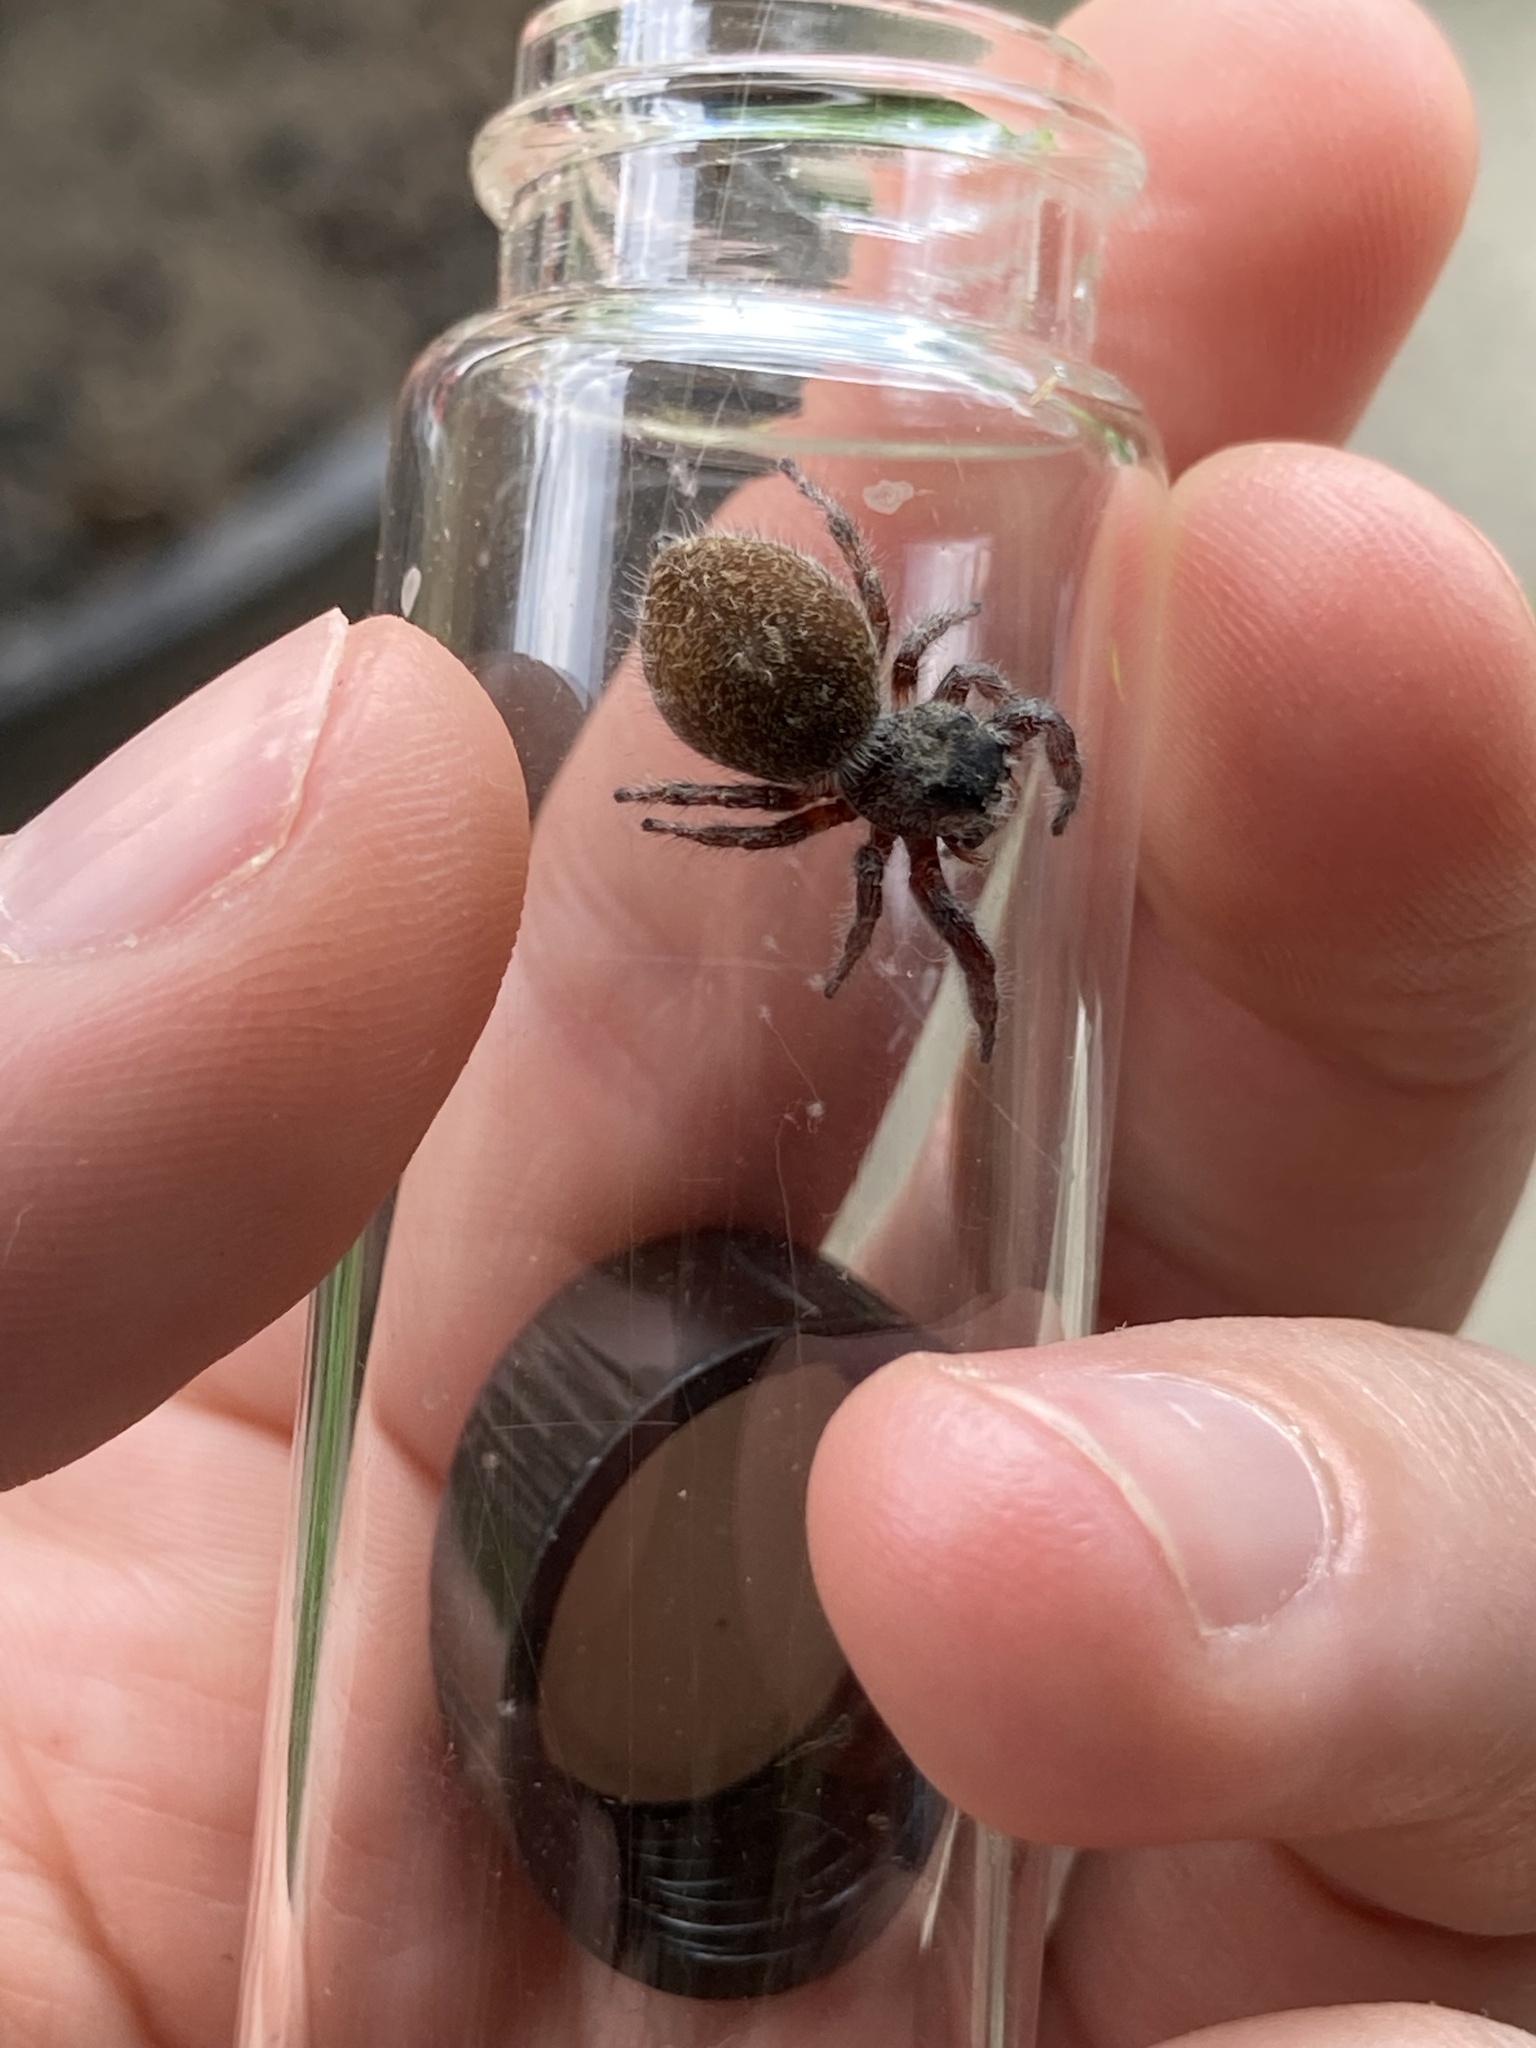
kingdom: Animalia
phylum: Arthropoda
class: Arachnida
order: Araneae
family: Salticidae
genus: Phidippus
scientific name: Phidippus princeps
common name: Grayish jumping spider
